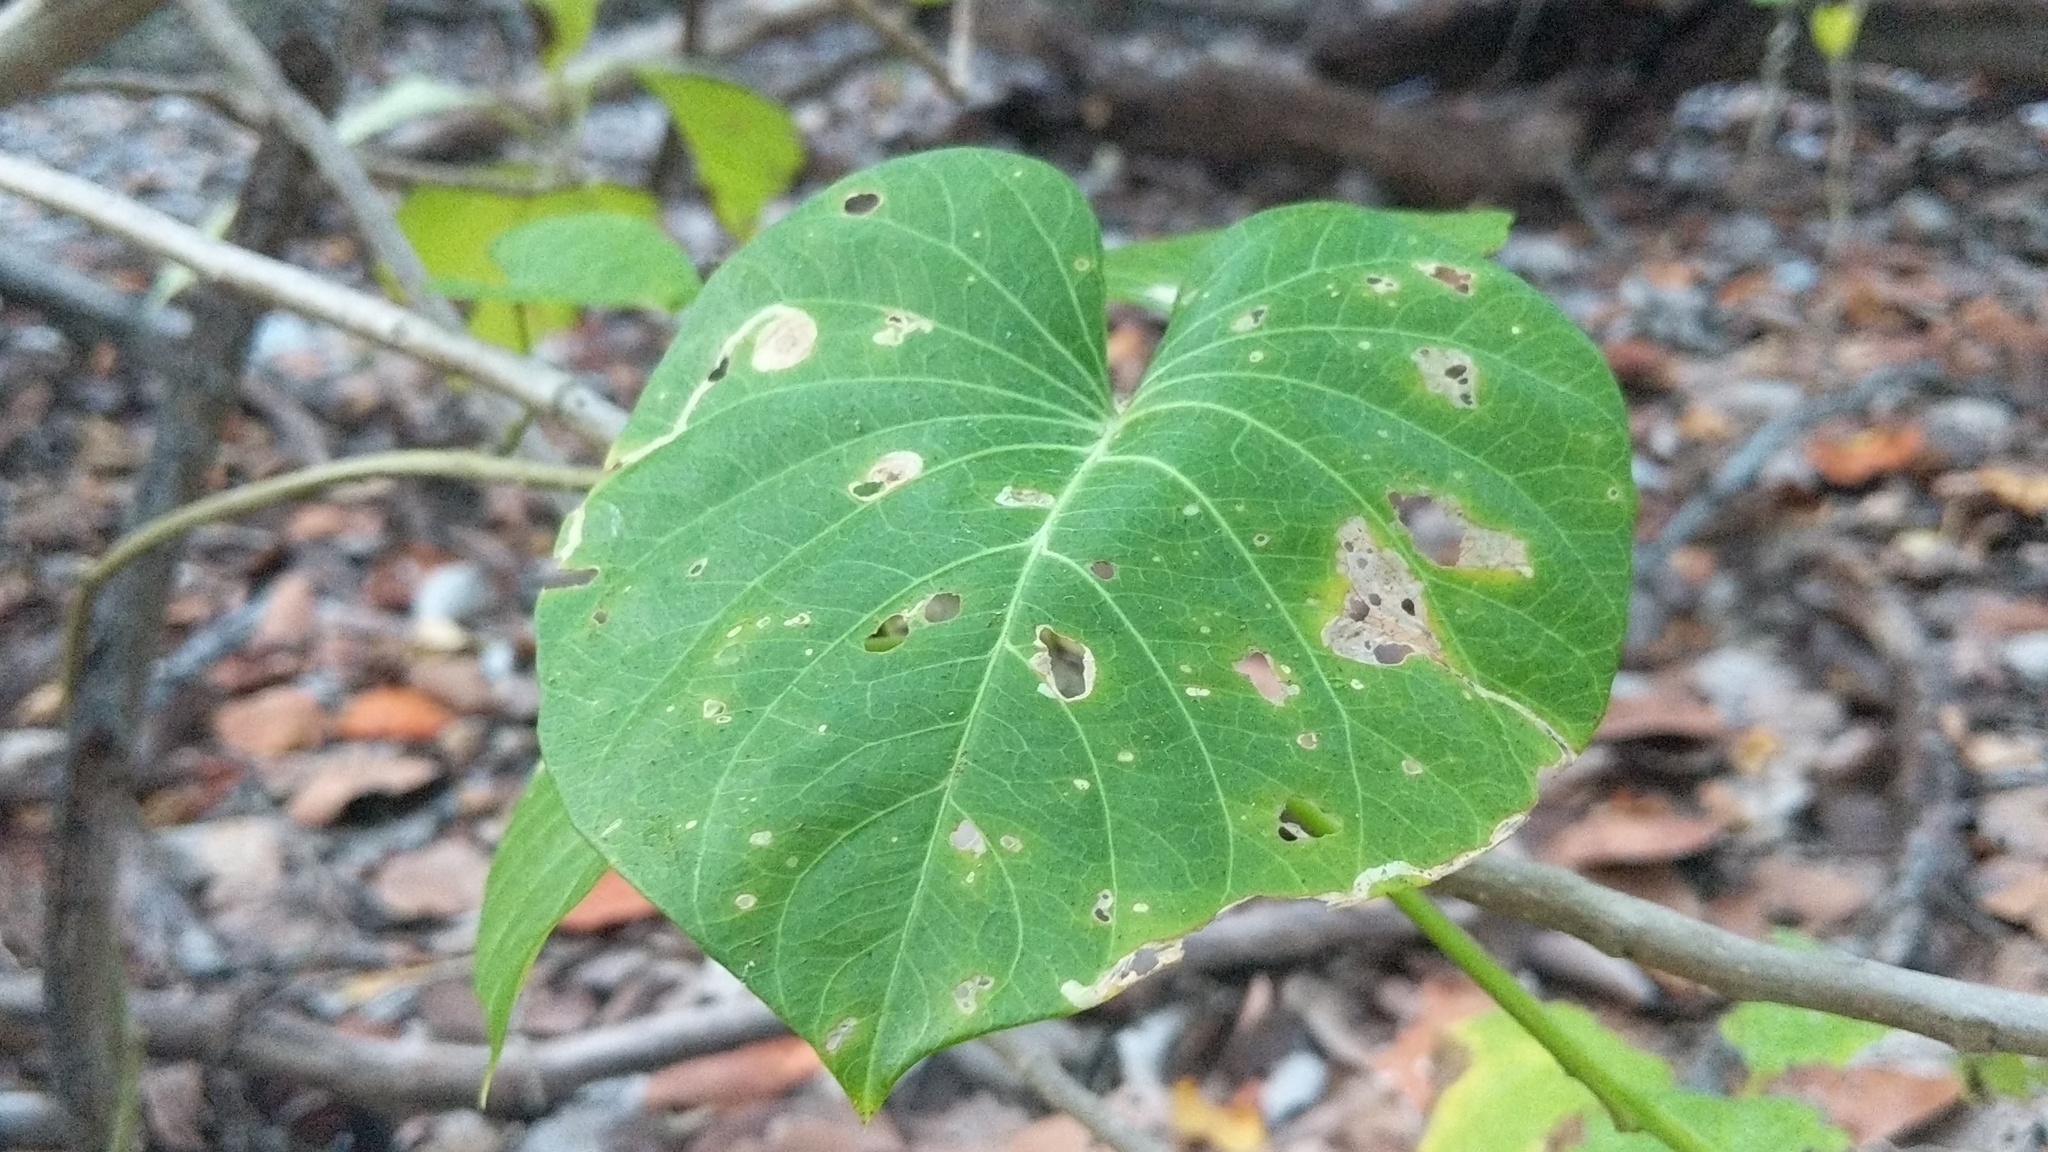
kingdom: Plantae
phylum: Tracheophyta
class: Magnoliopsida
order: Solanales
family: Convolvulaceae
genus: Ipomoea
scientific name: Ipomoea violacea
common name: Beach moonflower
